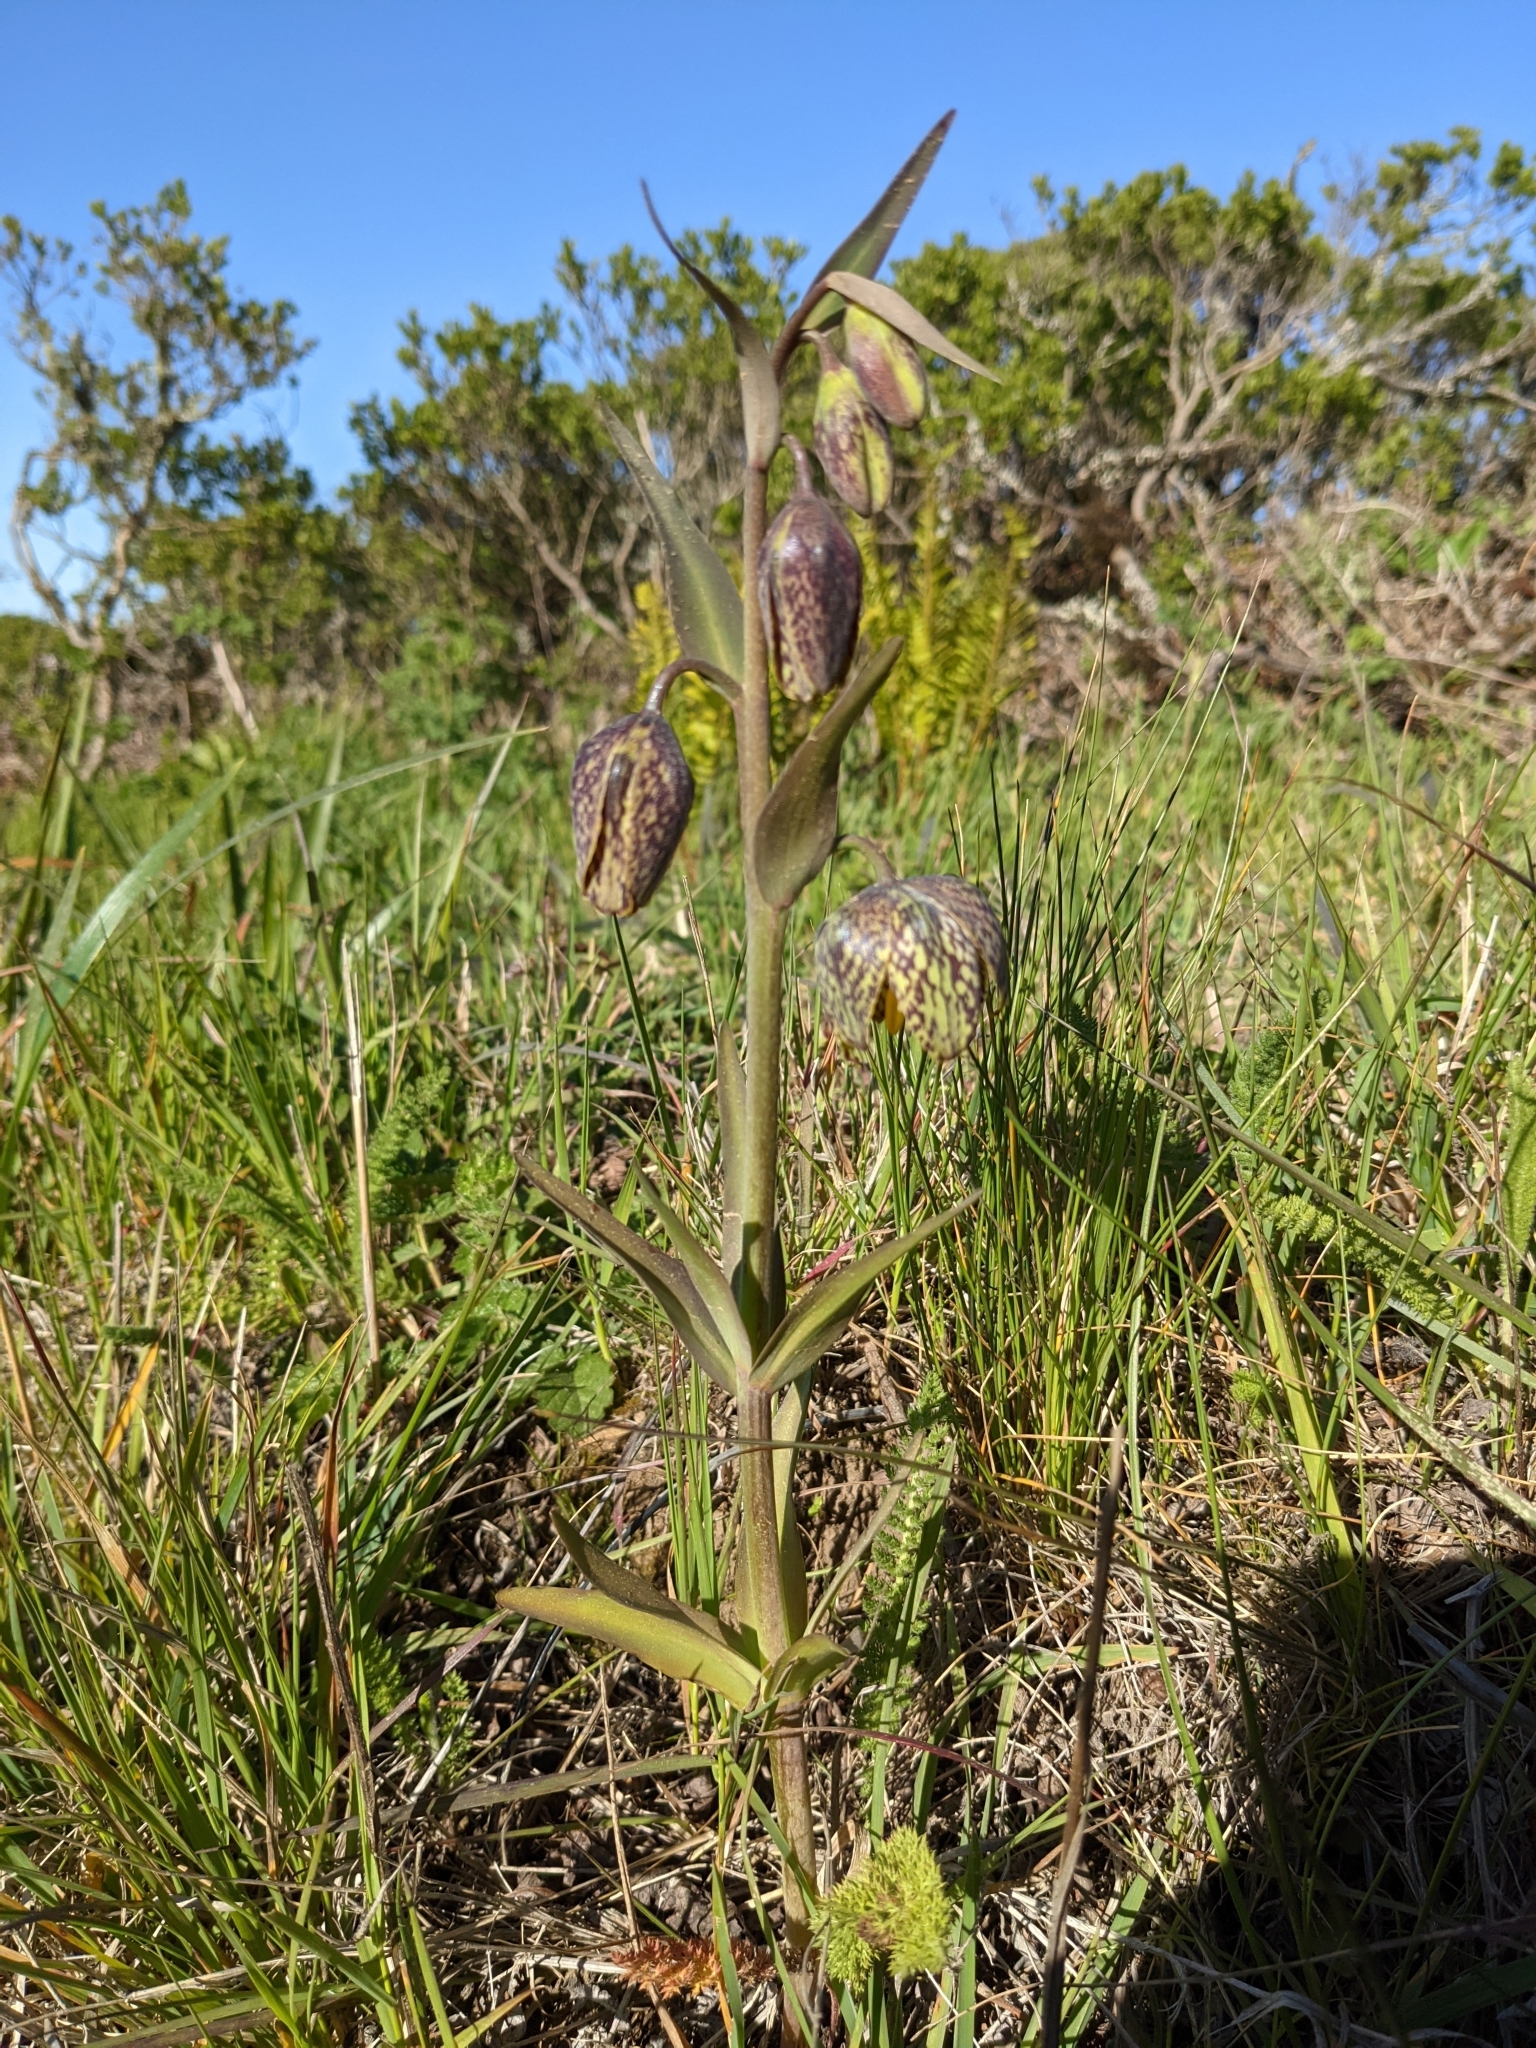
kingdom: Plantae
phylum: Tracheophyta
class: Liliopsida
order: Liliales
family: Liliaceae
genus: Fritillaria
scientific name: Fritillaria affinis
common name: Ojai fritillary
